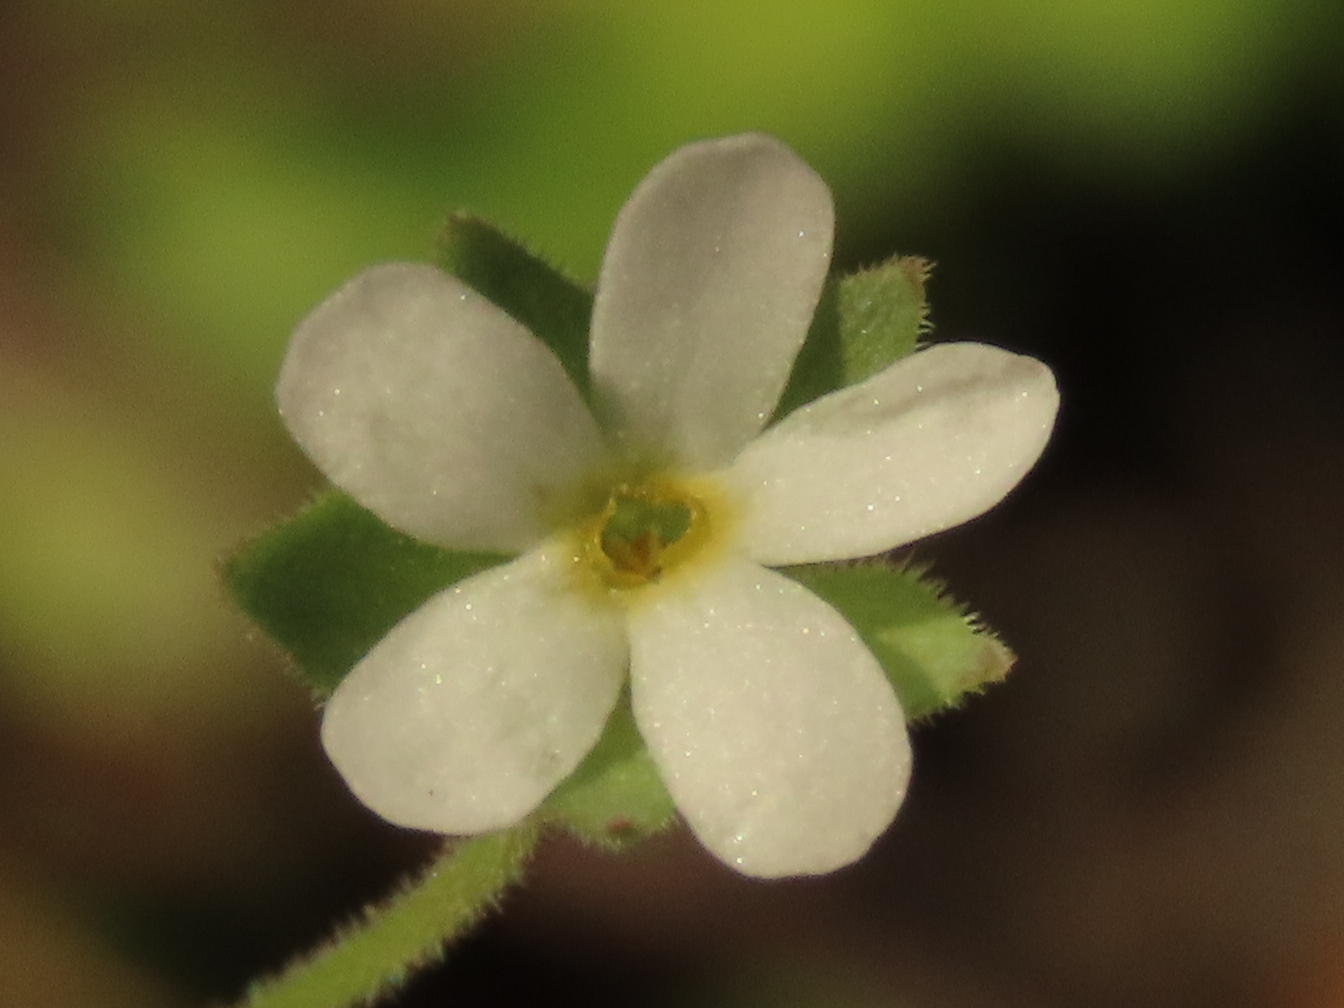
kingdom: Plantae
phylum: Tracheophyta
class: Magnoliopsida
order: Ericales
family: Primulaceae
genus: Androsace
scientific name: Androsace umbellata
